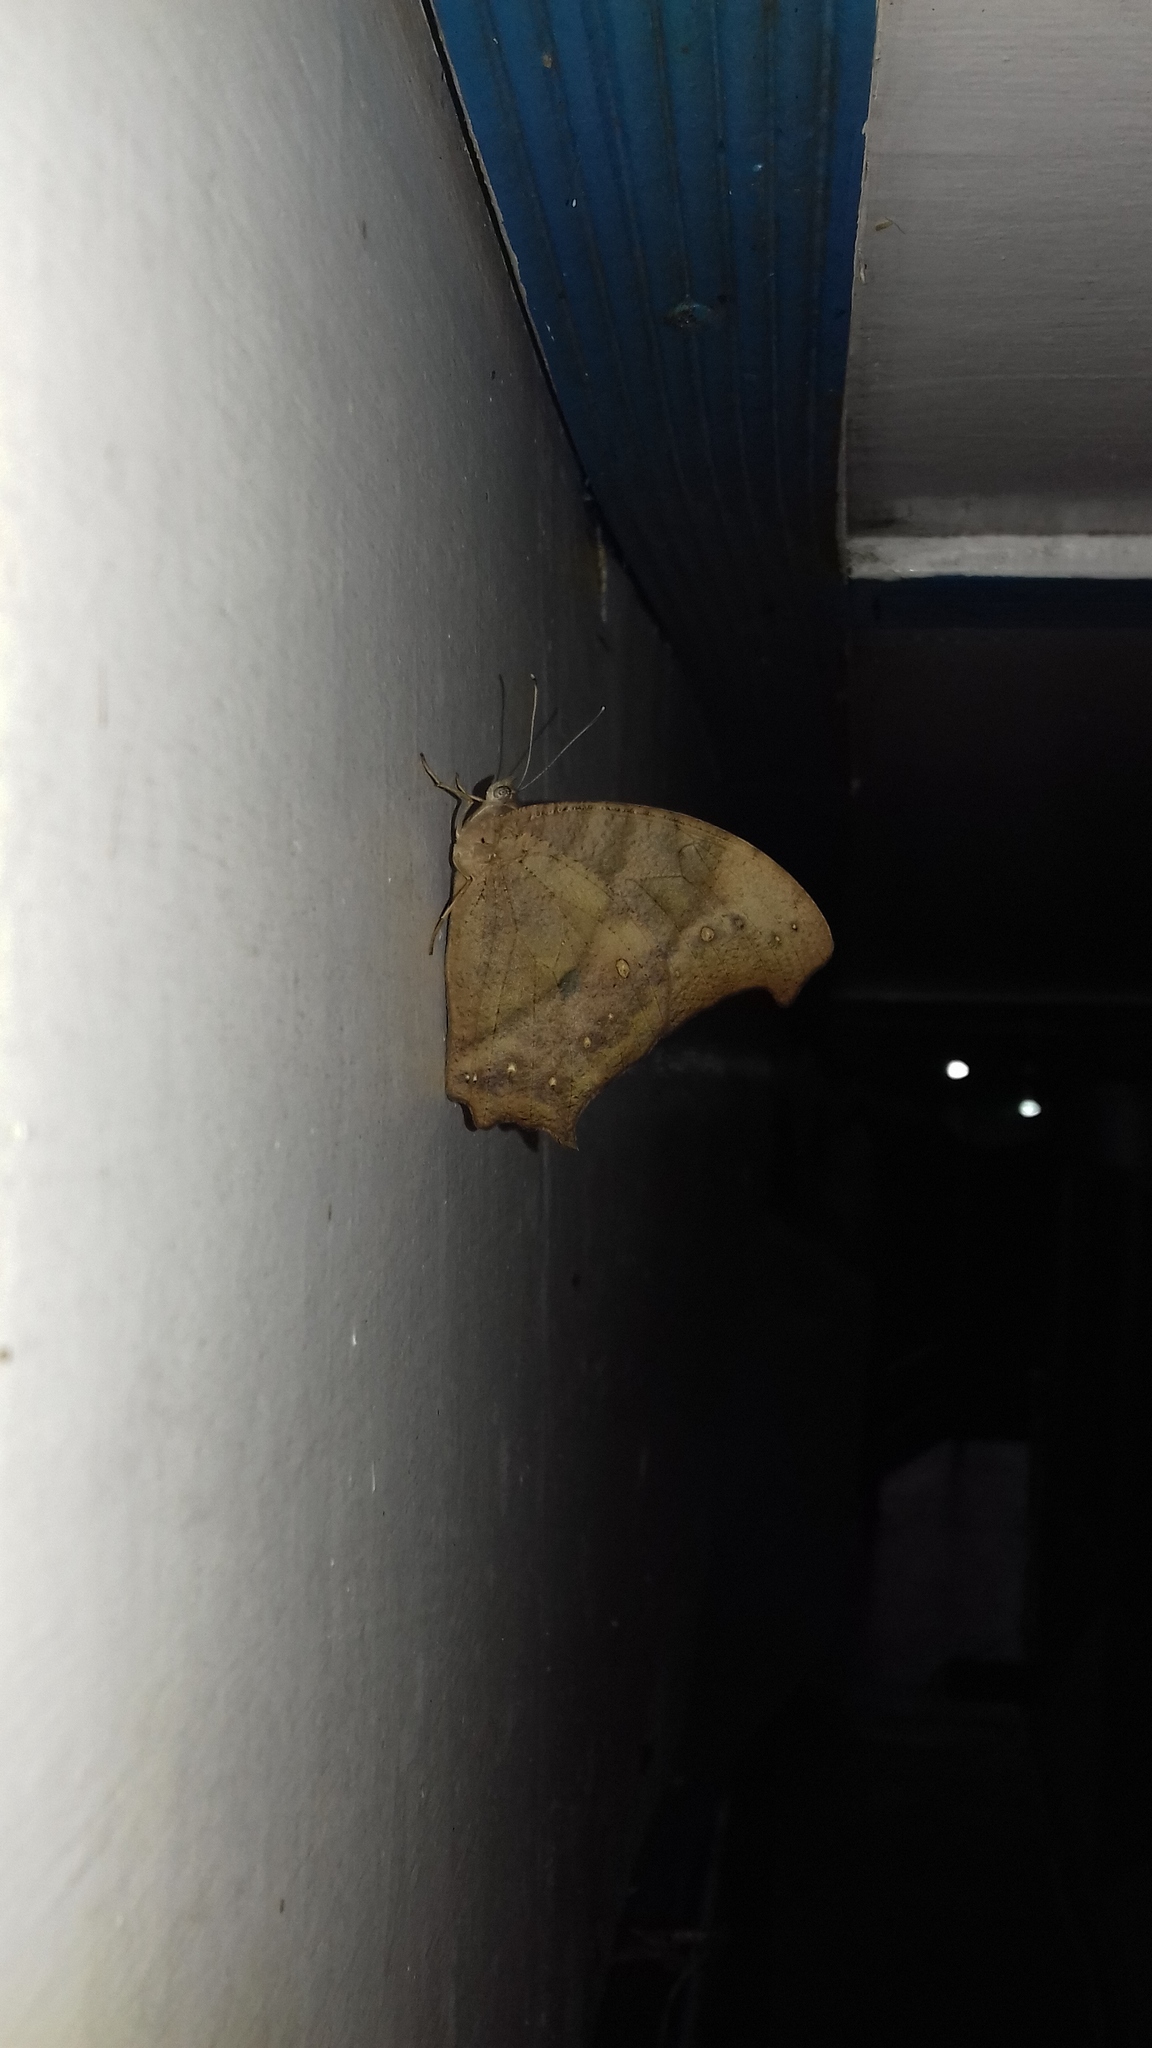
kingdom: Animalia
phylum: Arthropoda
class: Insecta
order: Lepidoptera
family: Nymphalidae
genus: Melanitis
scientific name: Melanitis leda
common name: Twilight brown
